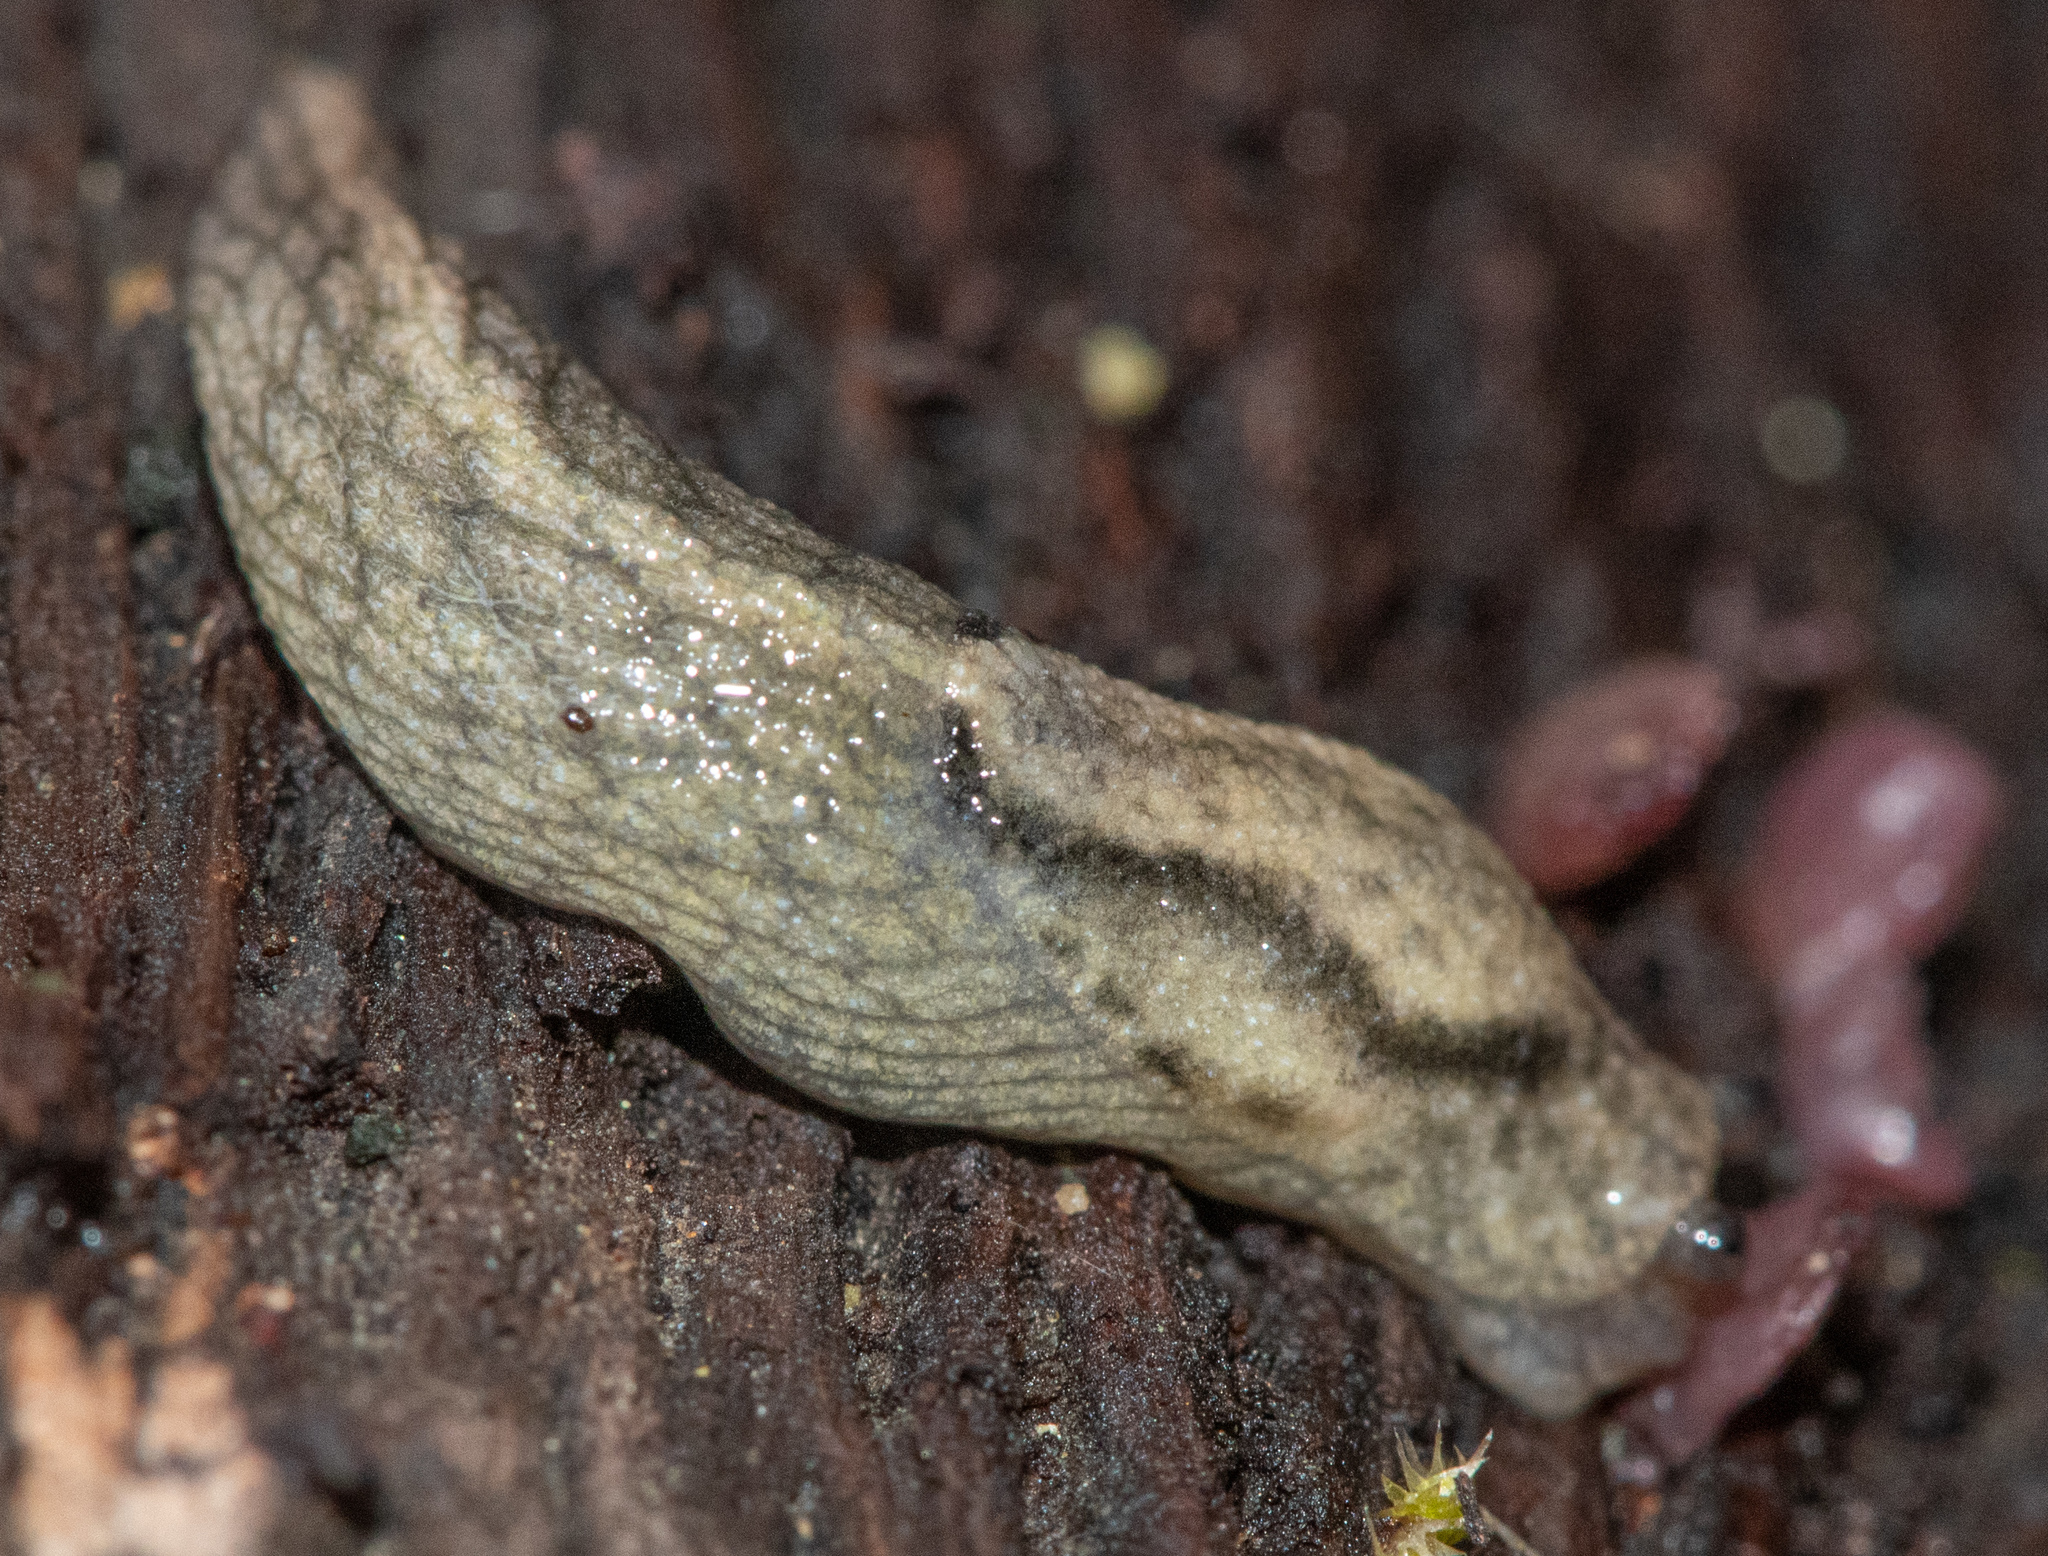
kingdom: Animalia
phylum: Mollusca
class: Gastropoda
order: Stylommatophora
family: Ariolimacidae
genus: Prophysaon
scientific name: Prophysaon andersonii
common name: Reticulate taildropper
